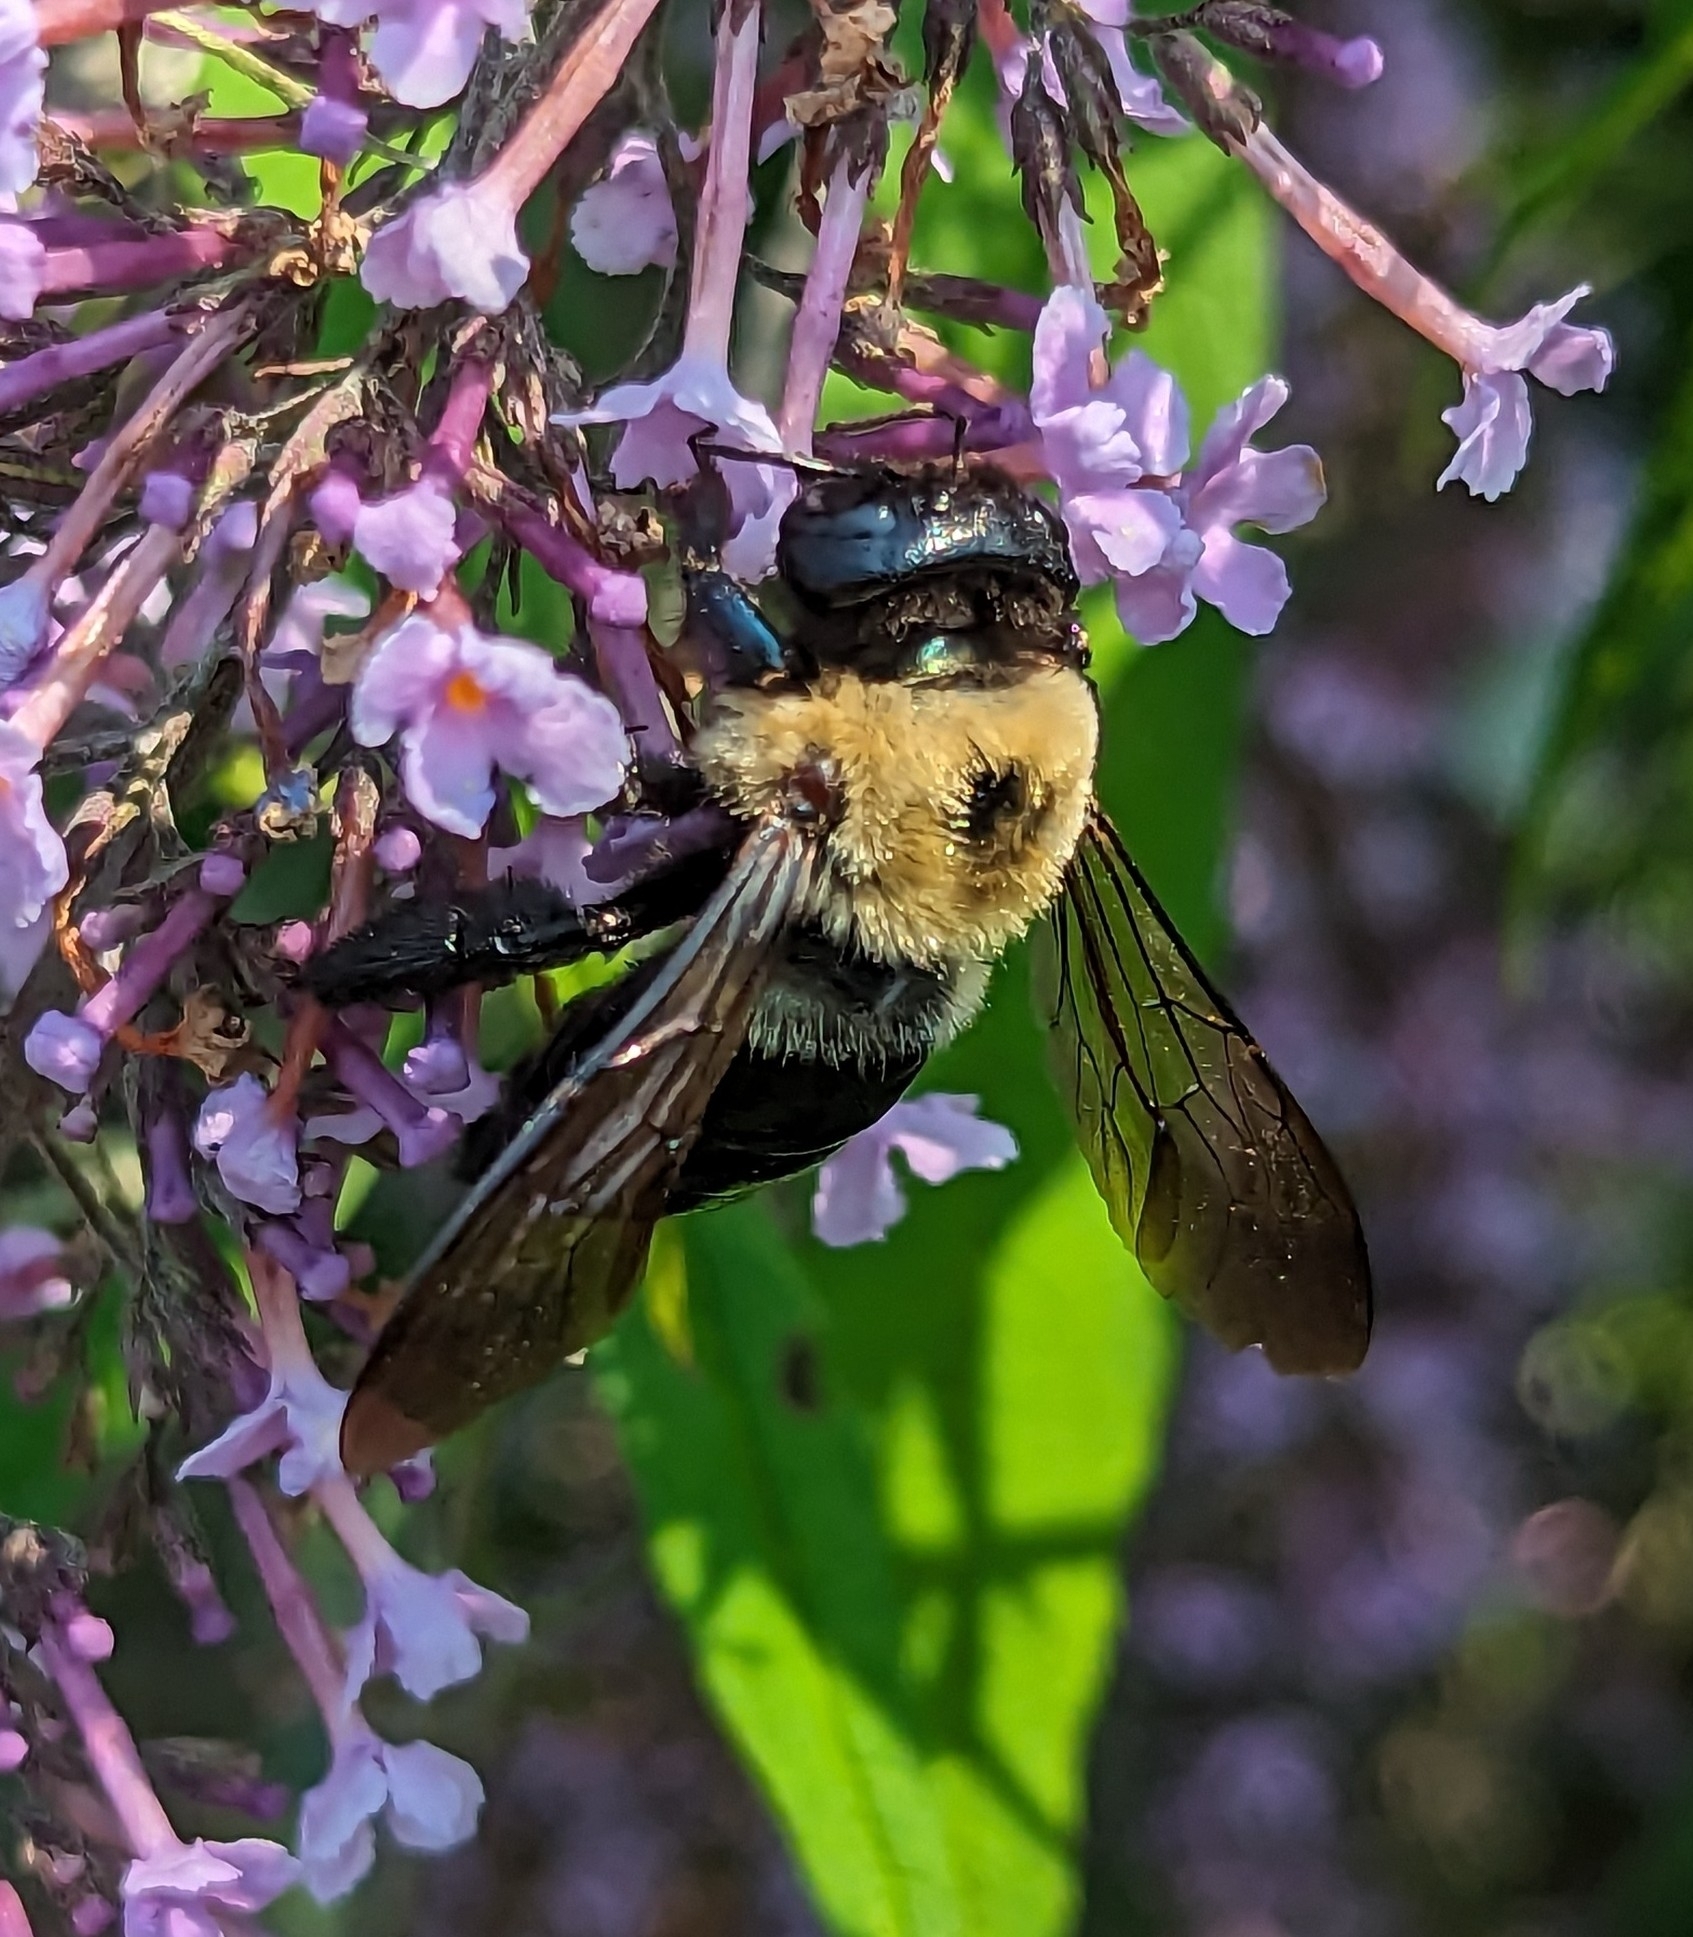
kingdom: Animalia
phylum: Arthropoda
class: Insecta
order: Hymenoptera
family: Apidae
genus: Xylocopa
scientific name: Xylocopa virginica
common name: Carpenter bee
